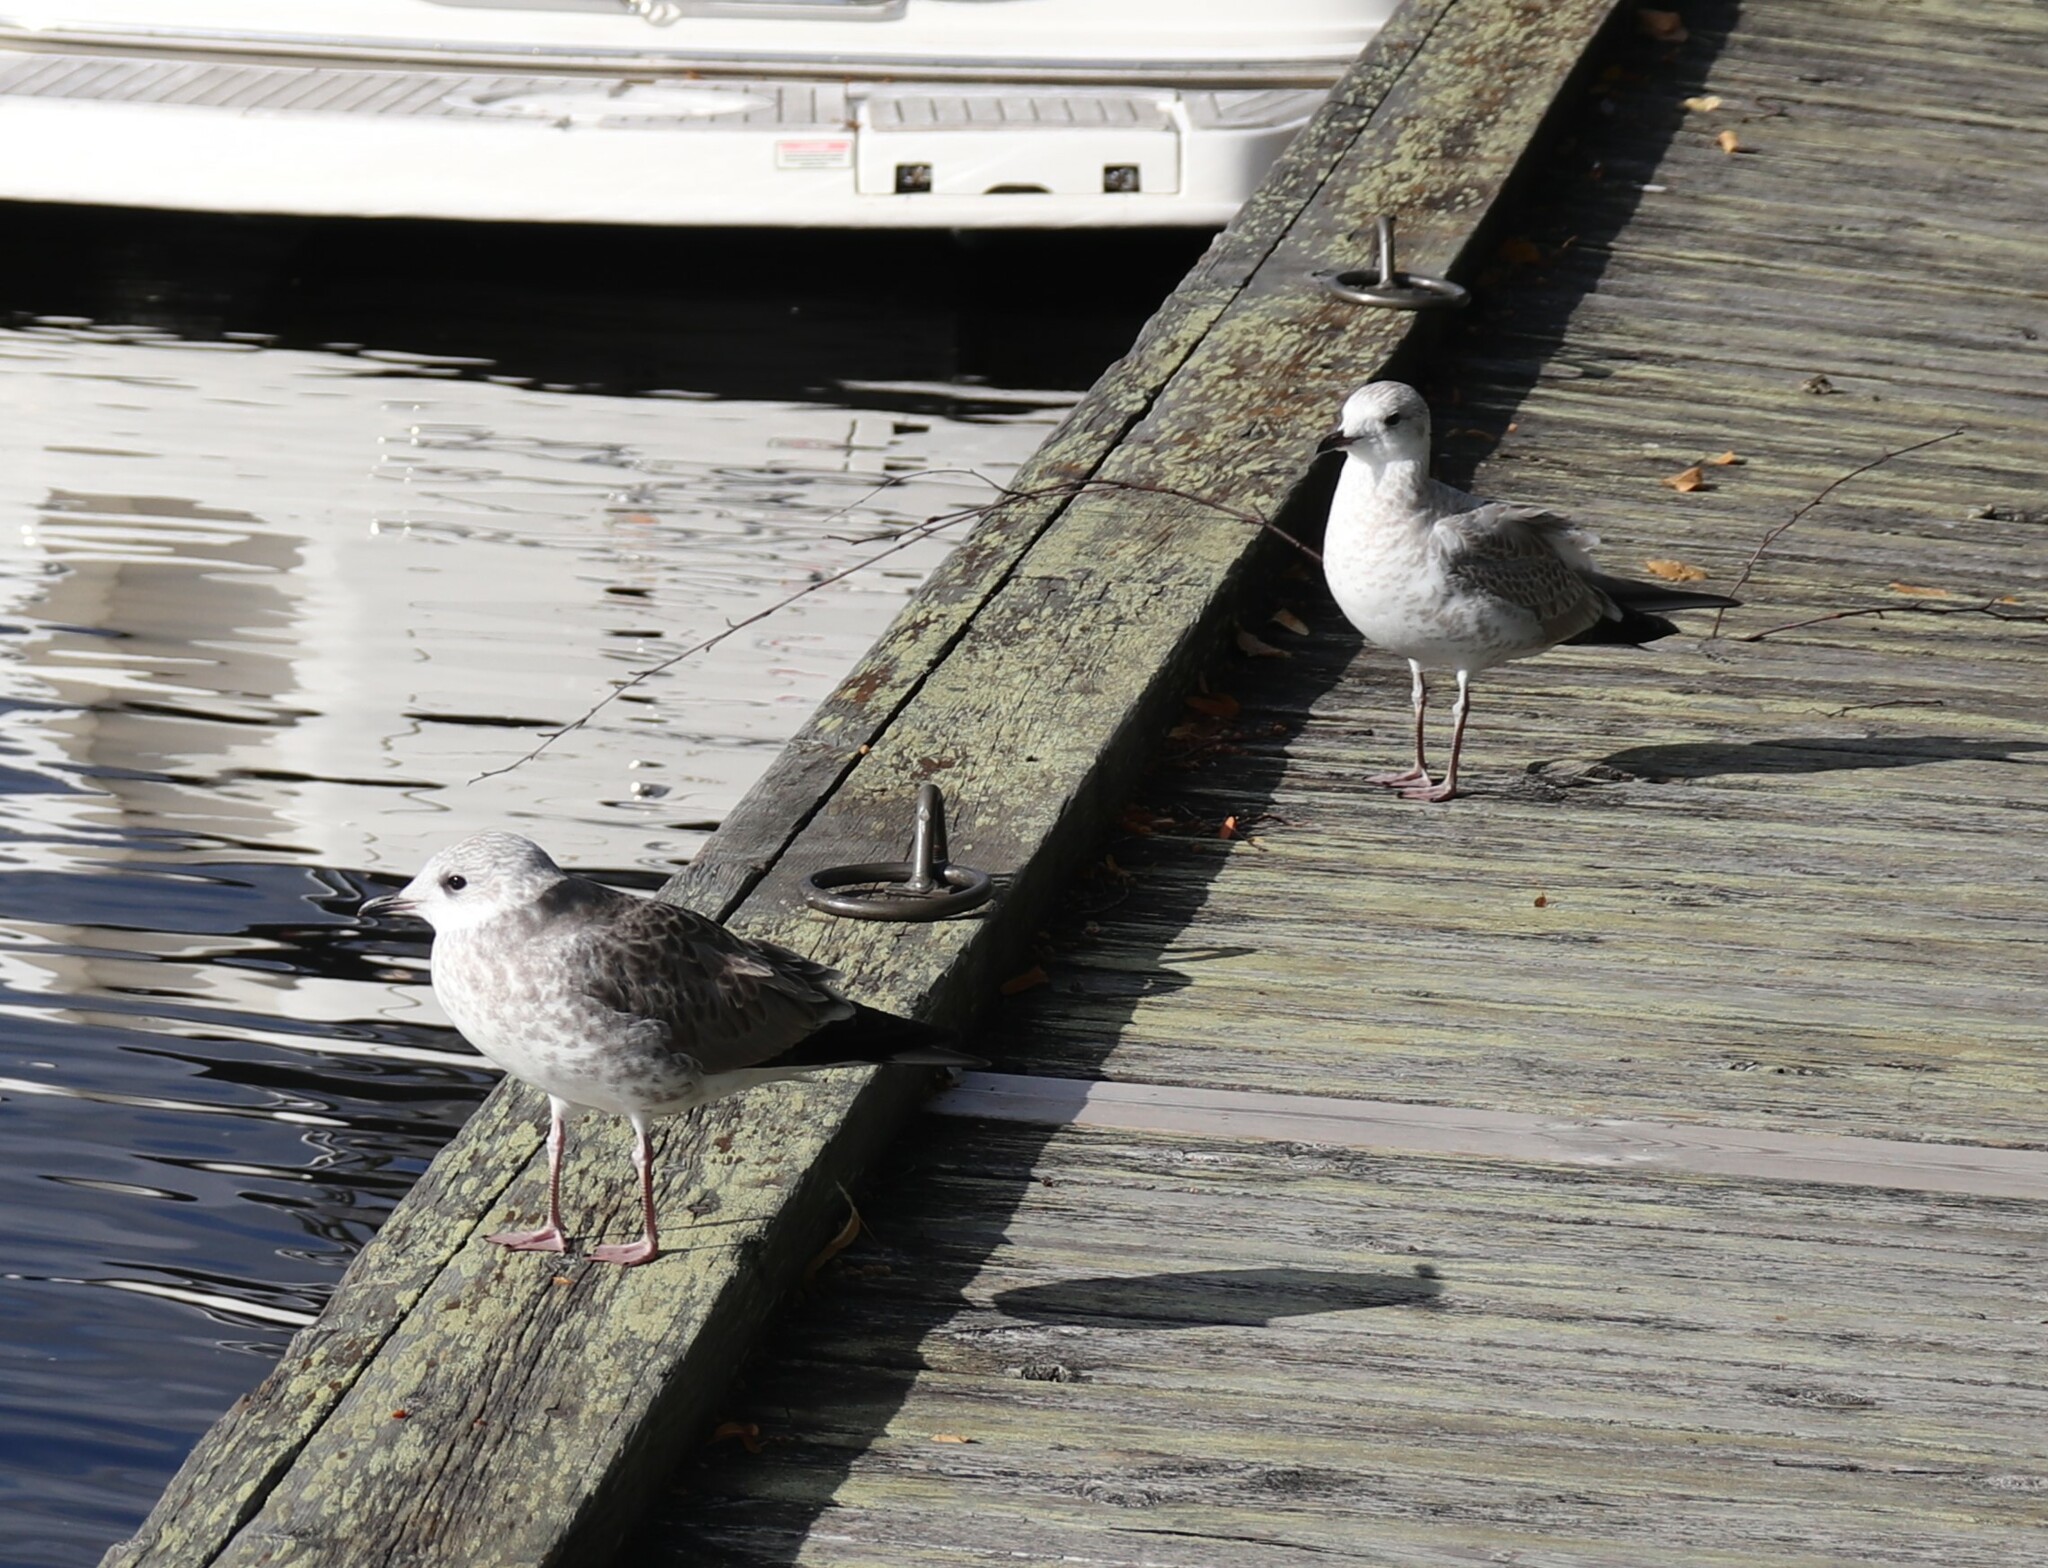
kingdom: Animalia
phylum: Chordata
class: Aves
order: Charadriiformes
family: Laridae
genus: Larus
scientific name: Larus canus
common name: Mew gull
